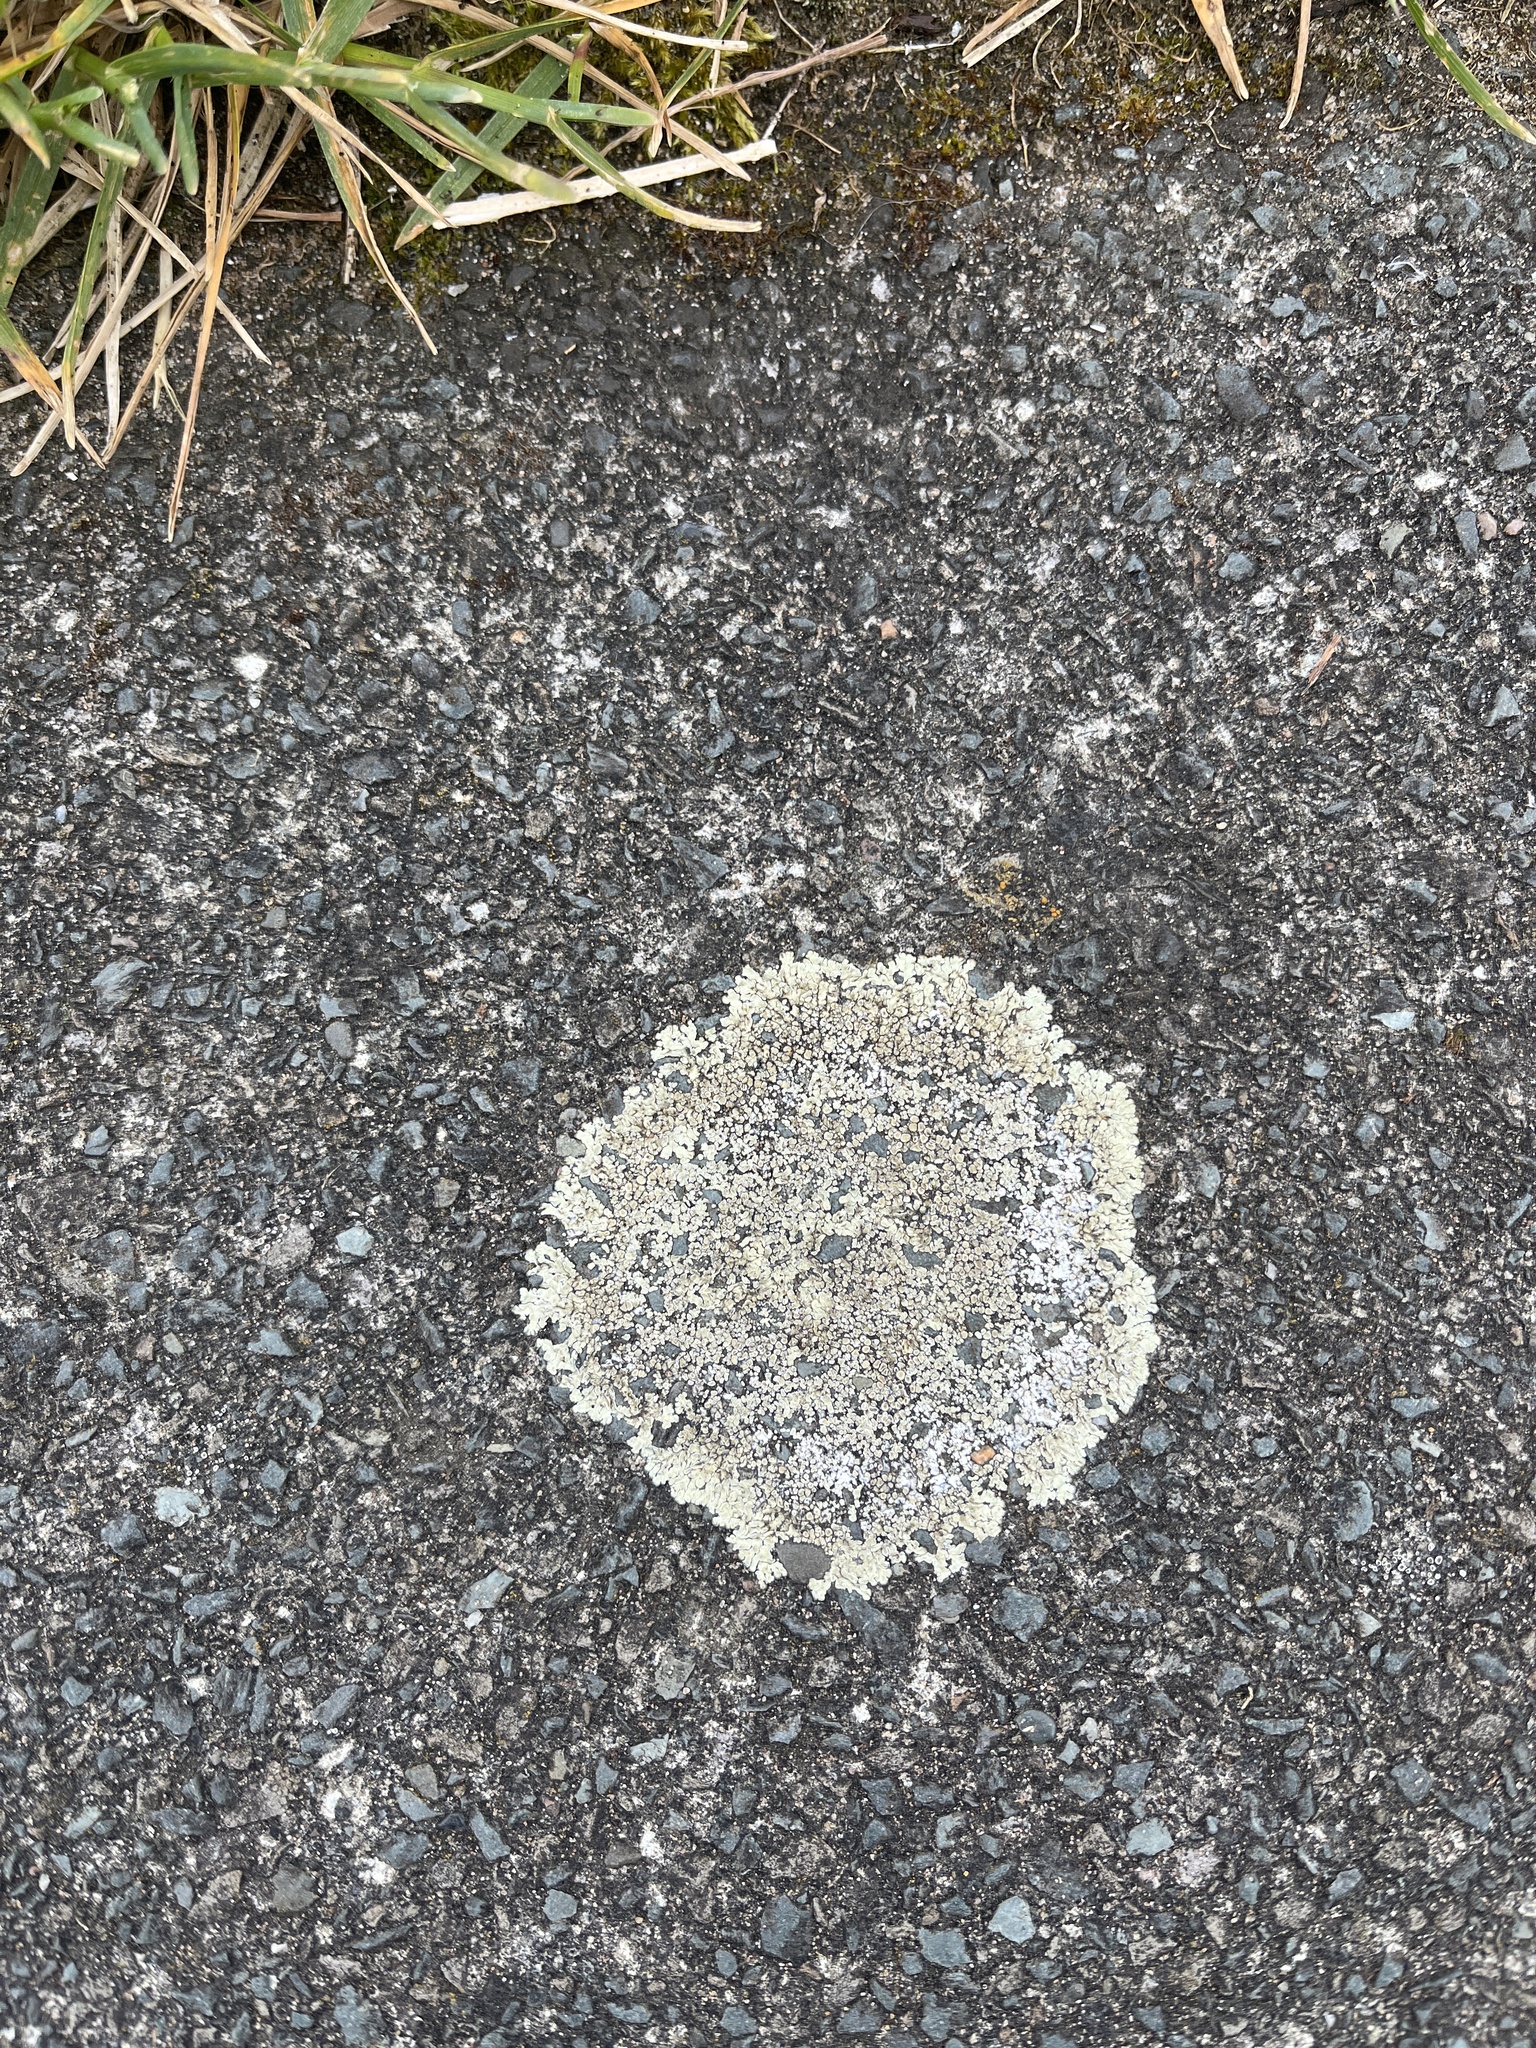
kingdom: Fungi
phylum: Ascomycota
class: Lecanoromycetes
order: Lecanorales
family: Lecanoraceae
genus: Protoparmeliopsis
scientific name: Protoparmeliopsis muralis
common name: Stonewall rim lichen
